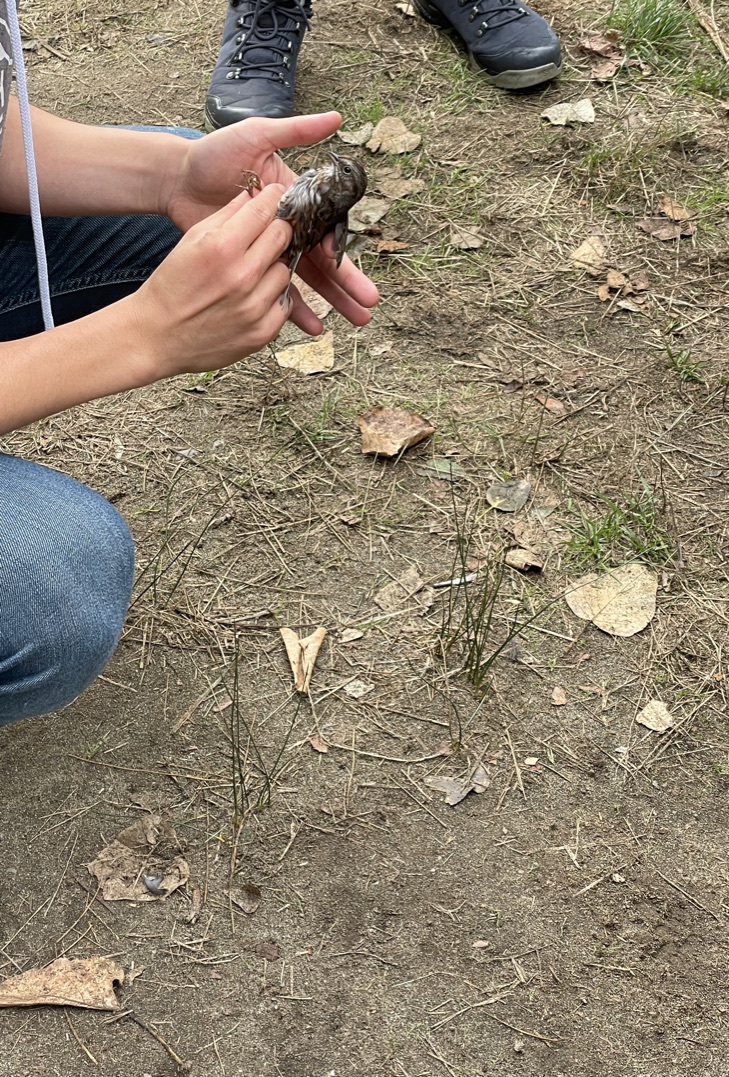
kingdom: Animalia
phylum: Chordata
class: Aves
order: Passeriformes
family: Passerellidae
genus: Melospiza
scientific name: Melospiza melodia
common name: Song sparrow
